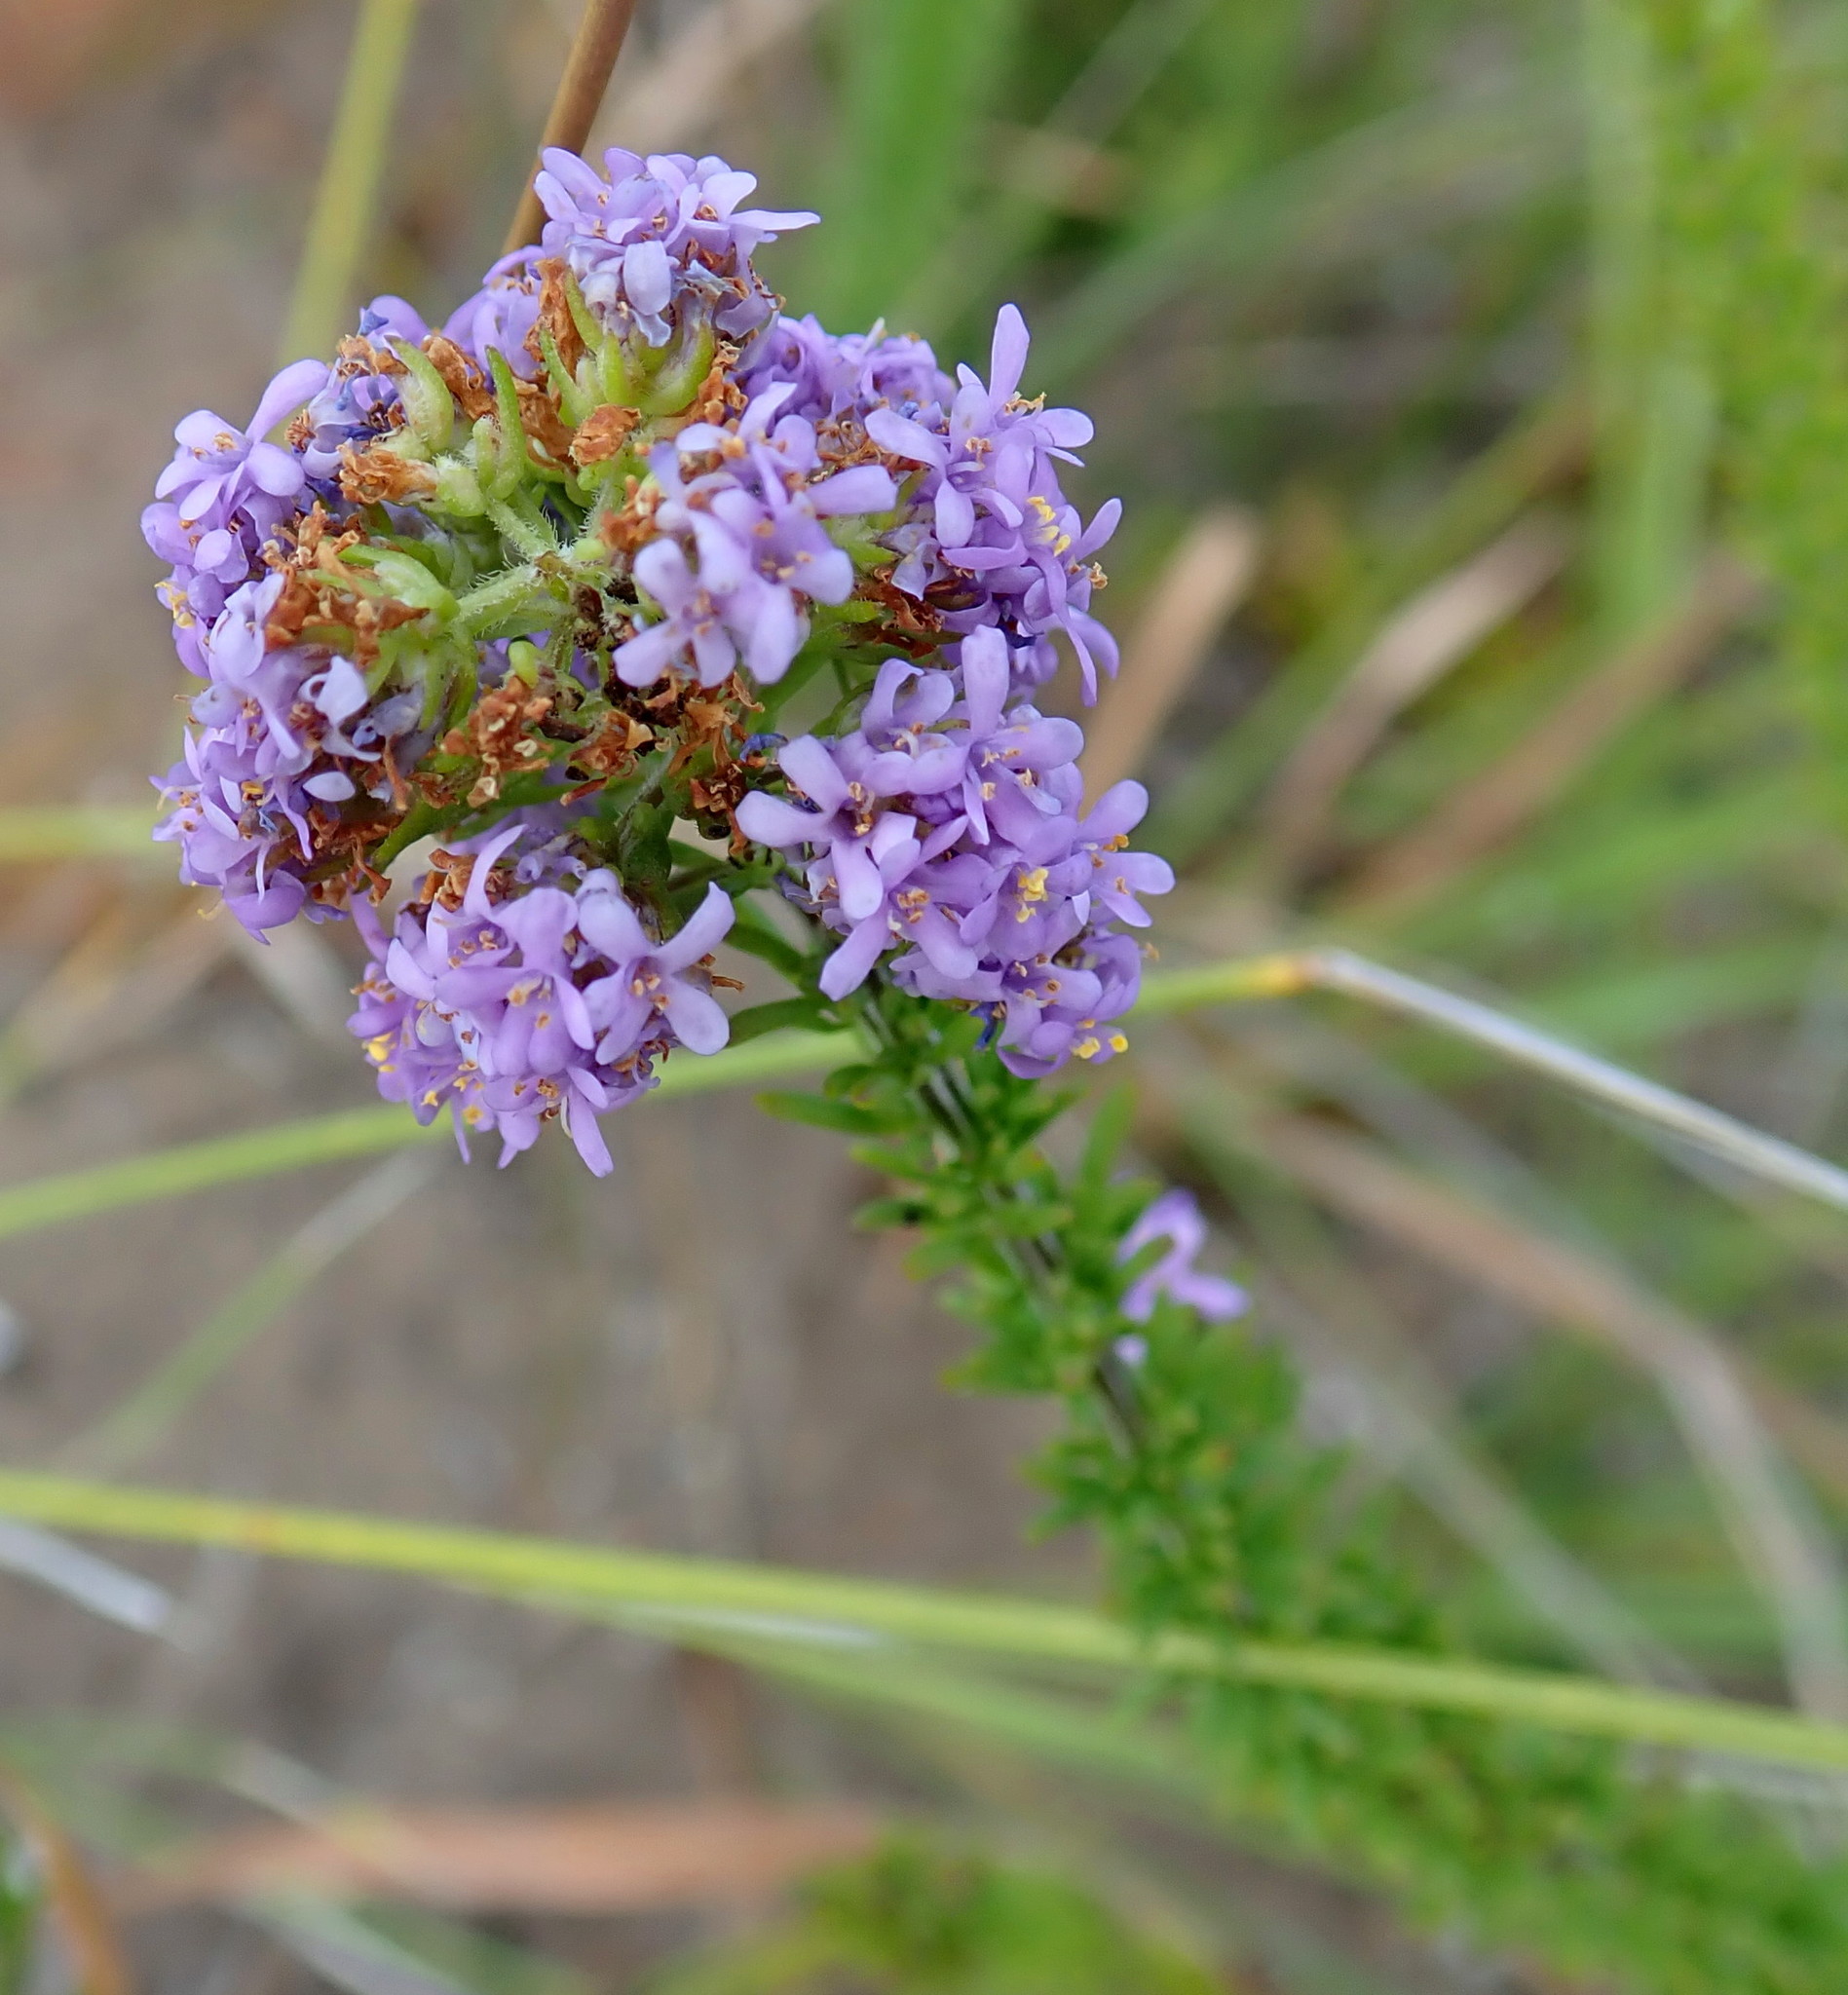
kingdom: Plantae
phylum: Tracheophyta
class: Magnoliopsida
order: Lamiales
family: Scrophulariaceae
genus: Selago
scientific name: Selago burchellii
